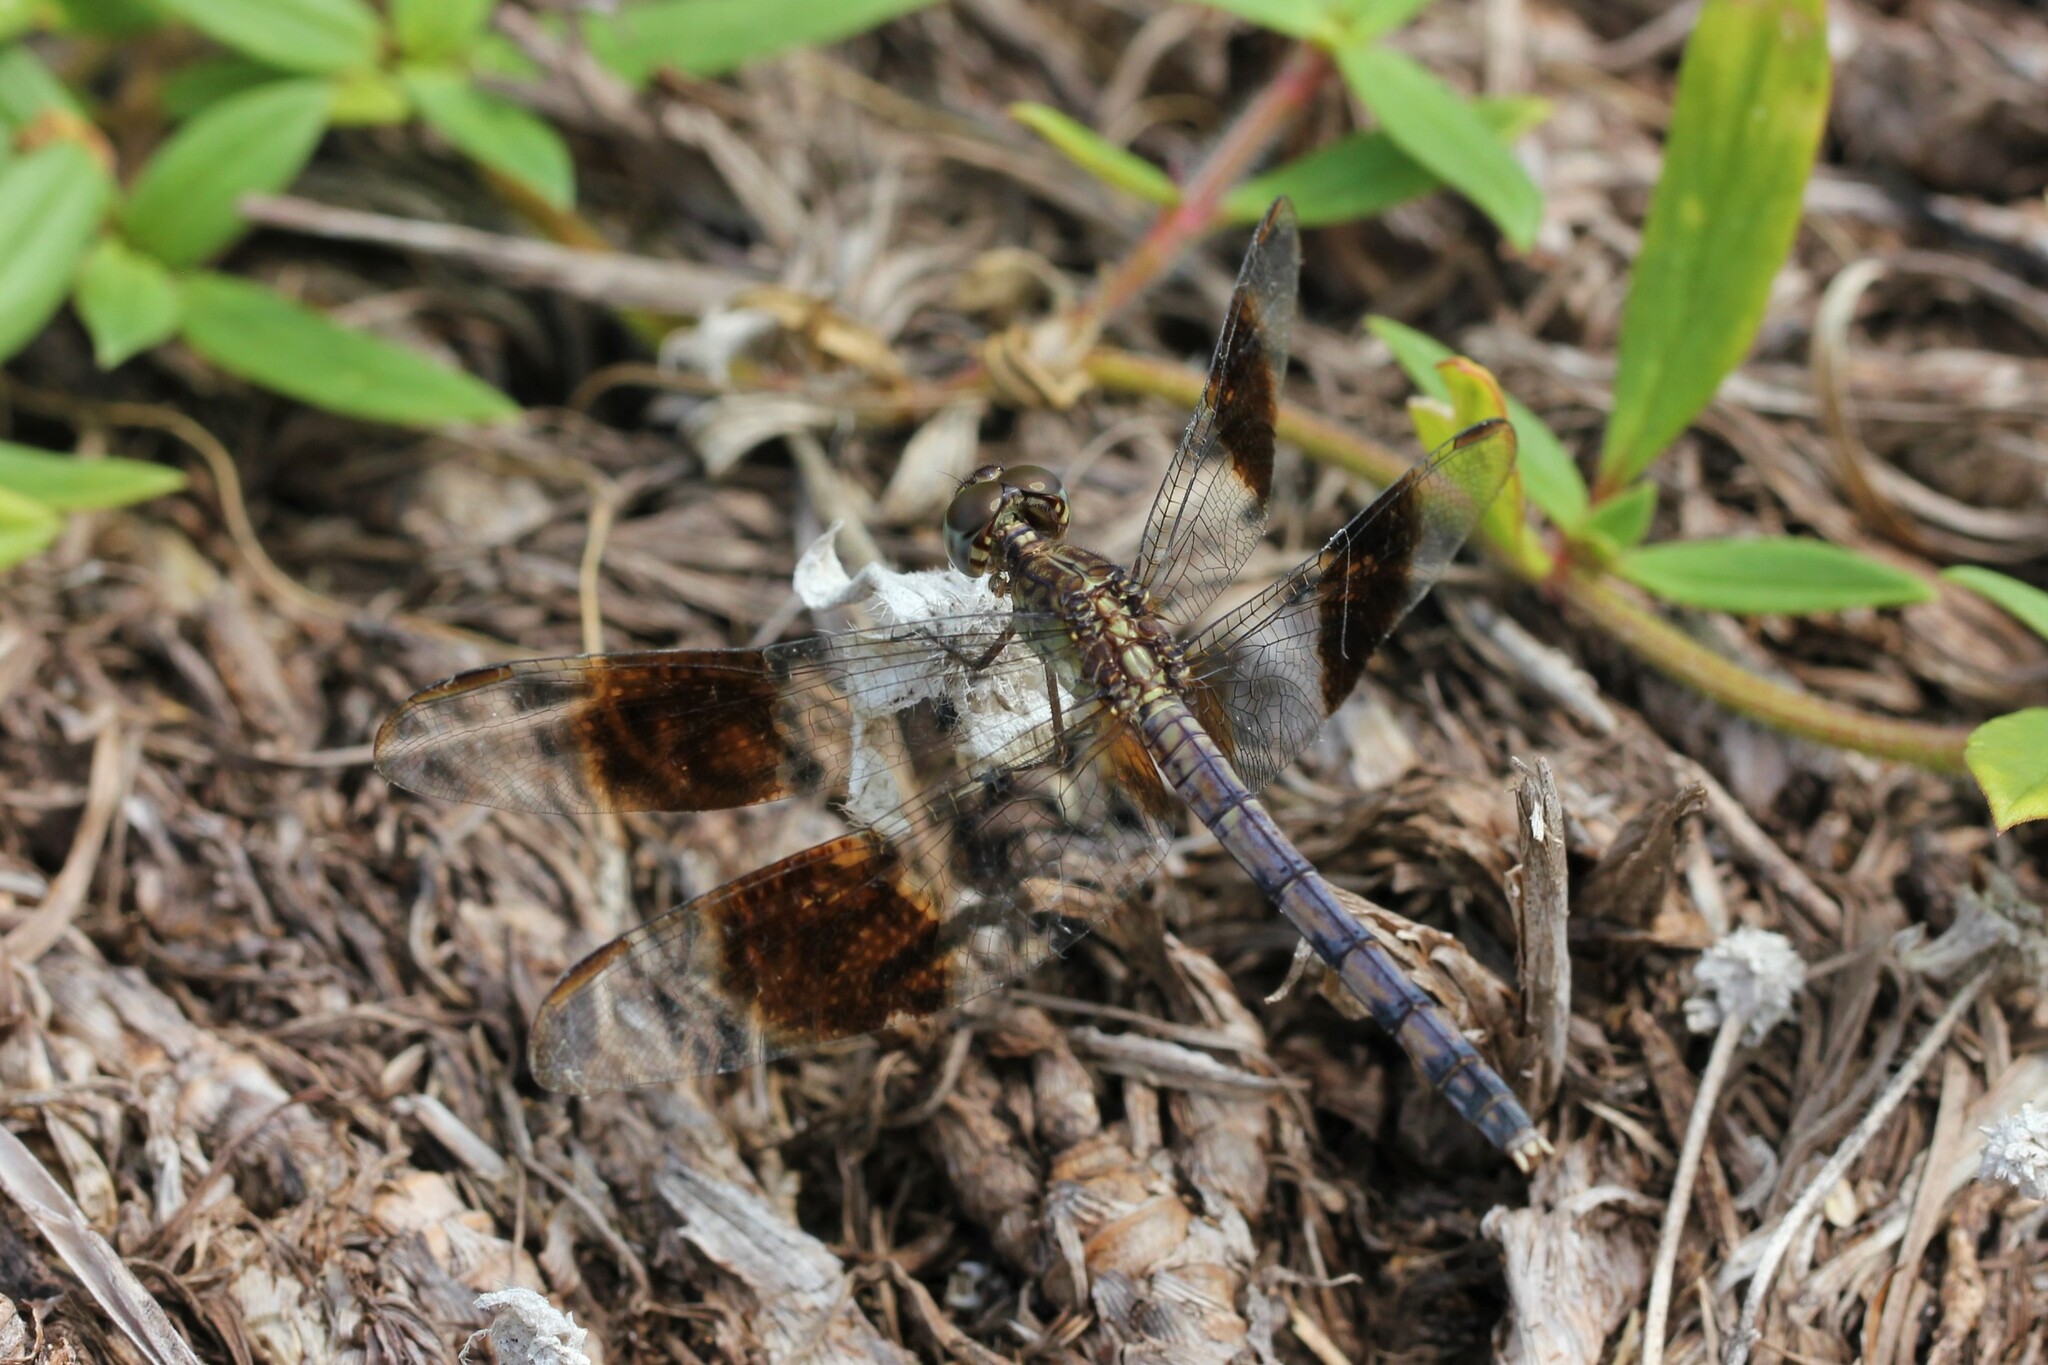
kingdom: Animalia
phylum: Arthropoda
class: Insecta
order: Odonata
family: Libellulidae
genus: Erythrodiplax
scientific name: Erythrodiplax umbrata
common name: Band-winged dragonlet
